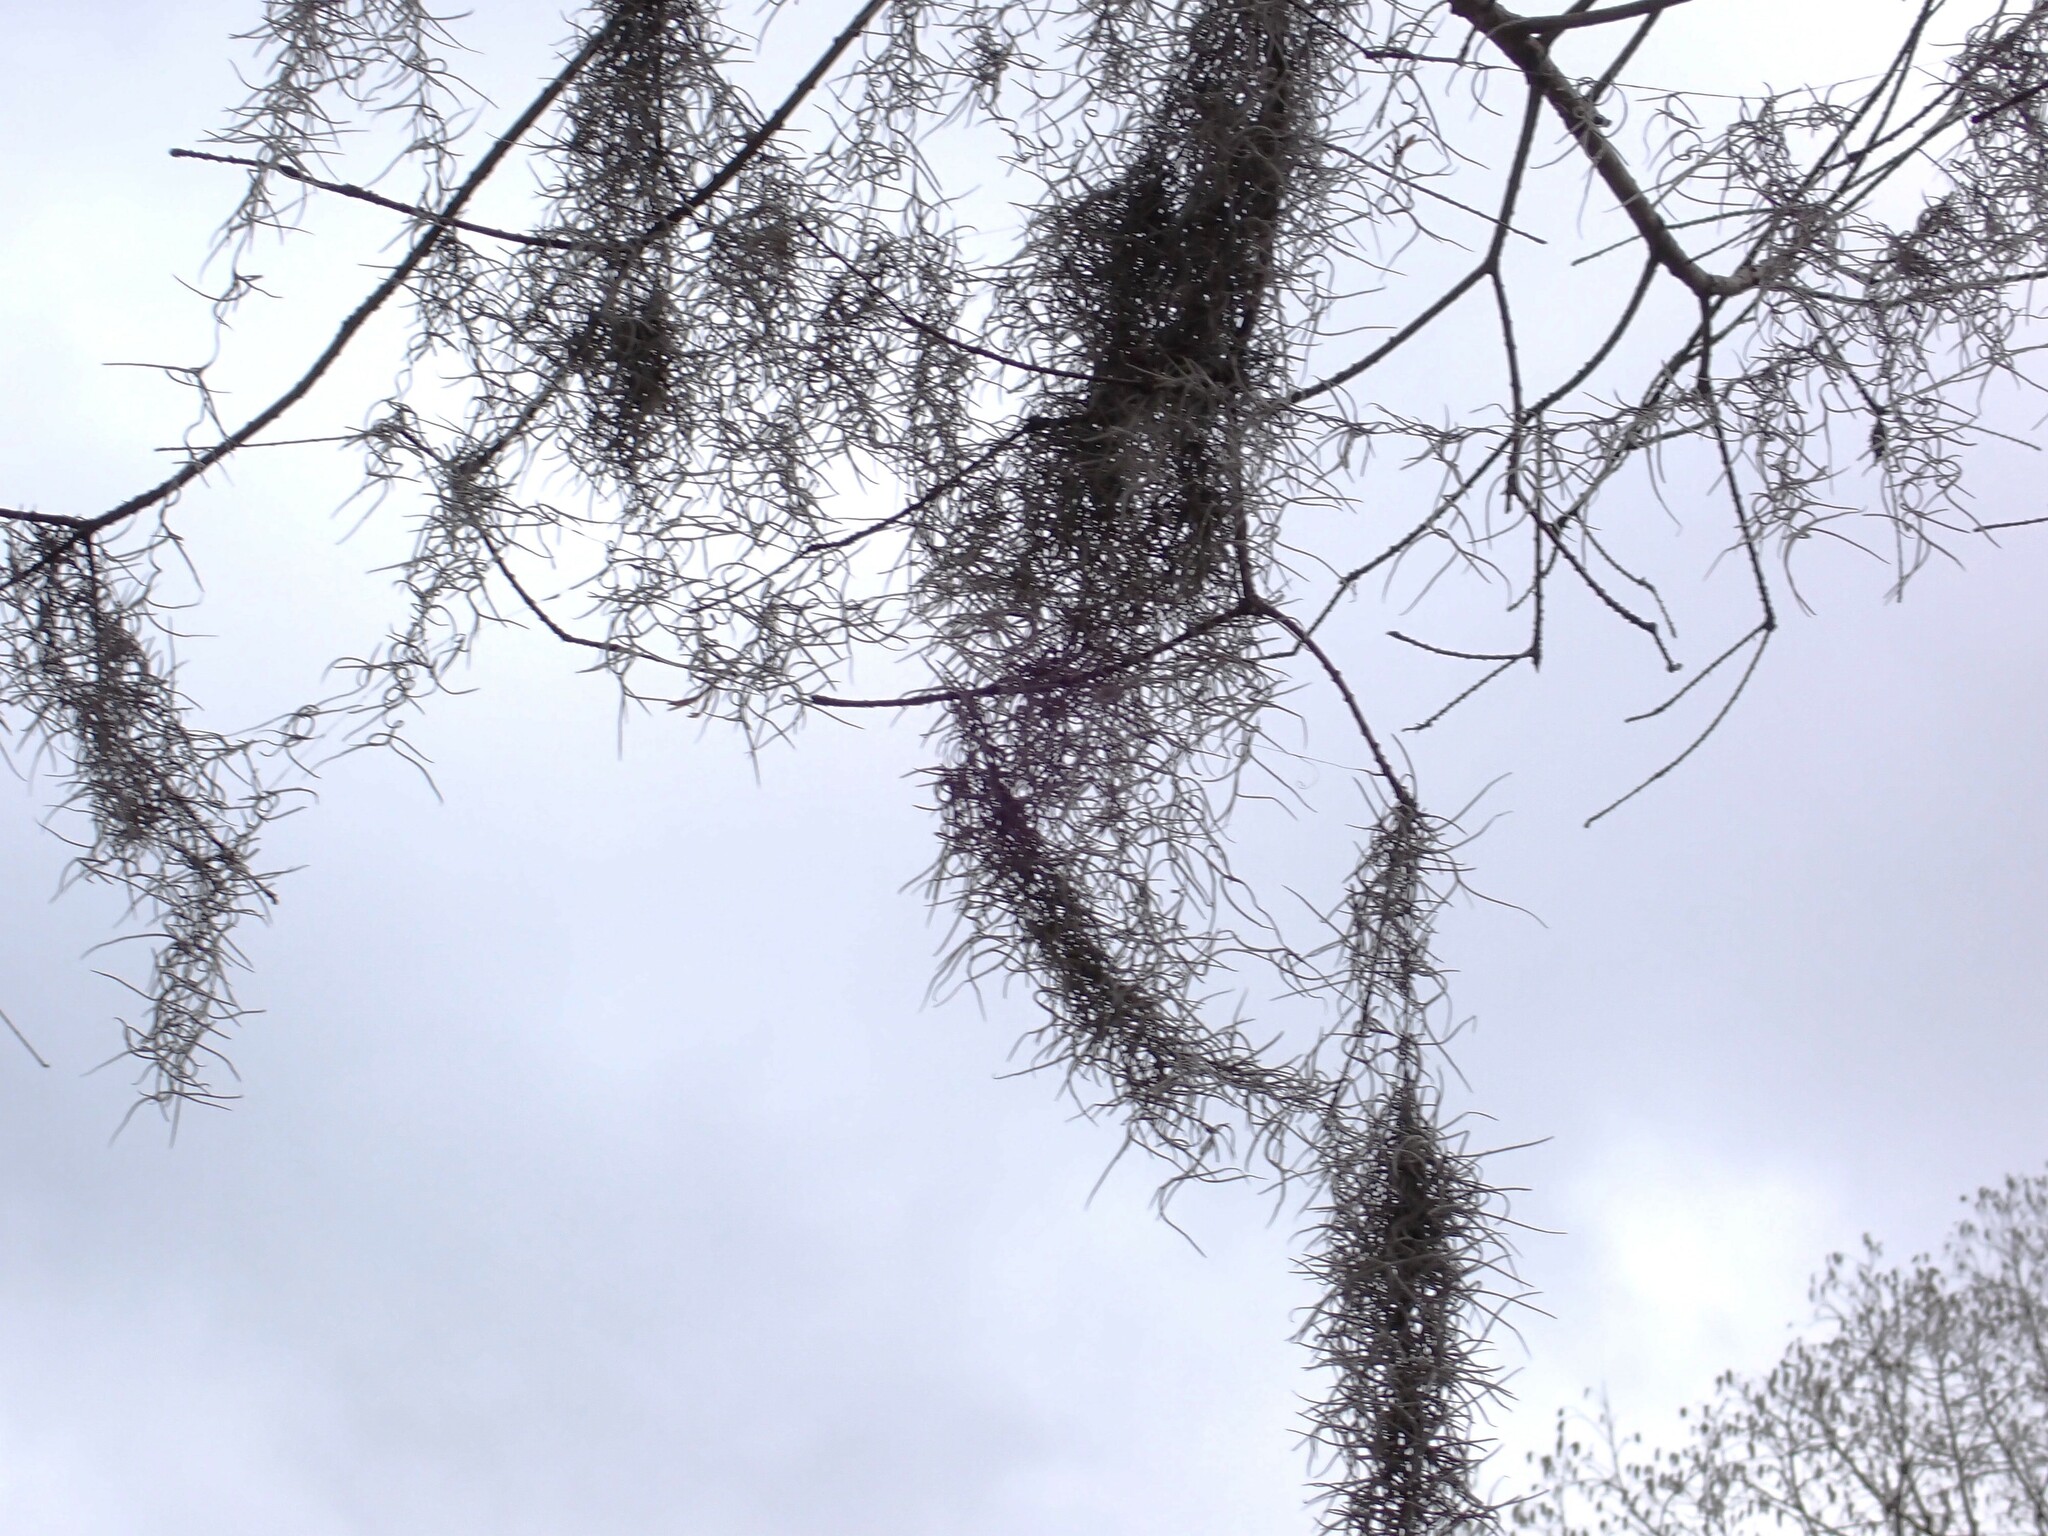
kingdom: Plantae
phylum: Tracheophyta
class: Liliopsida
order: Poales
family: Bromeliaceae
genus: Tillandsia
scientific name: Tillandsia usneoides
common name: Spanish moss
